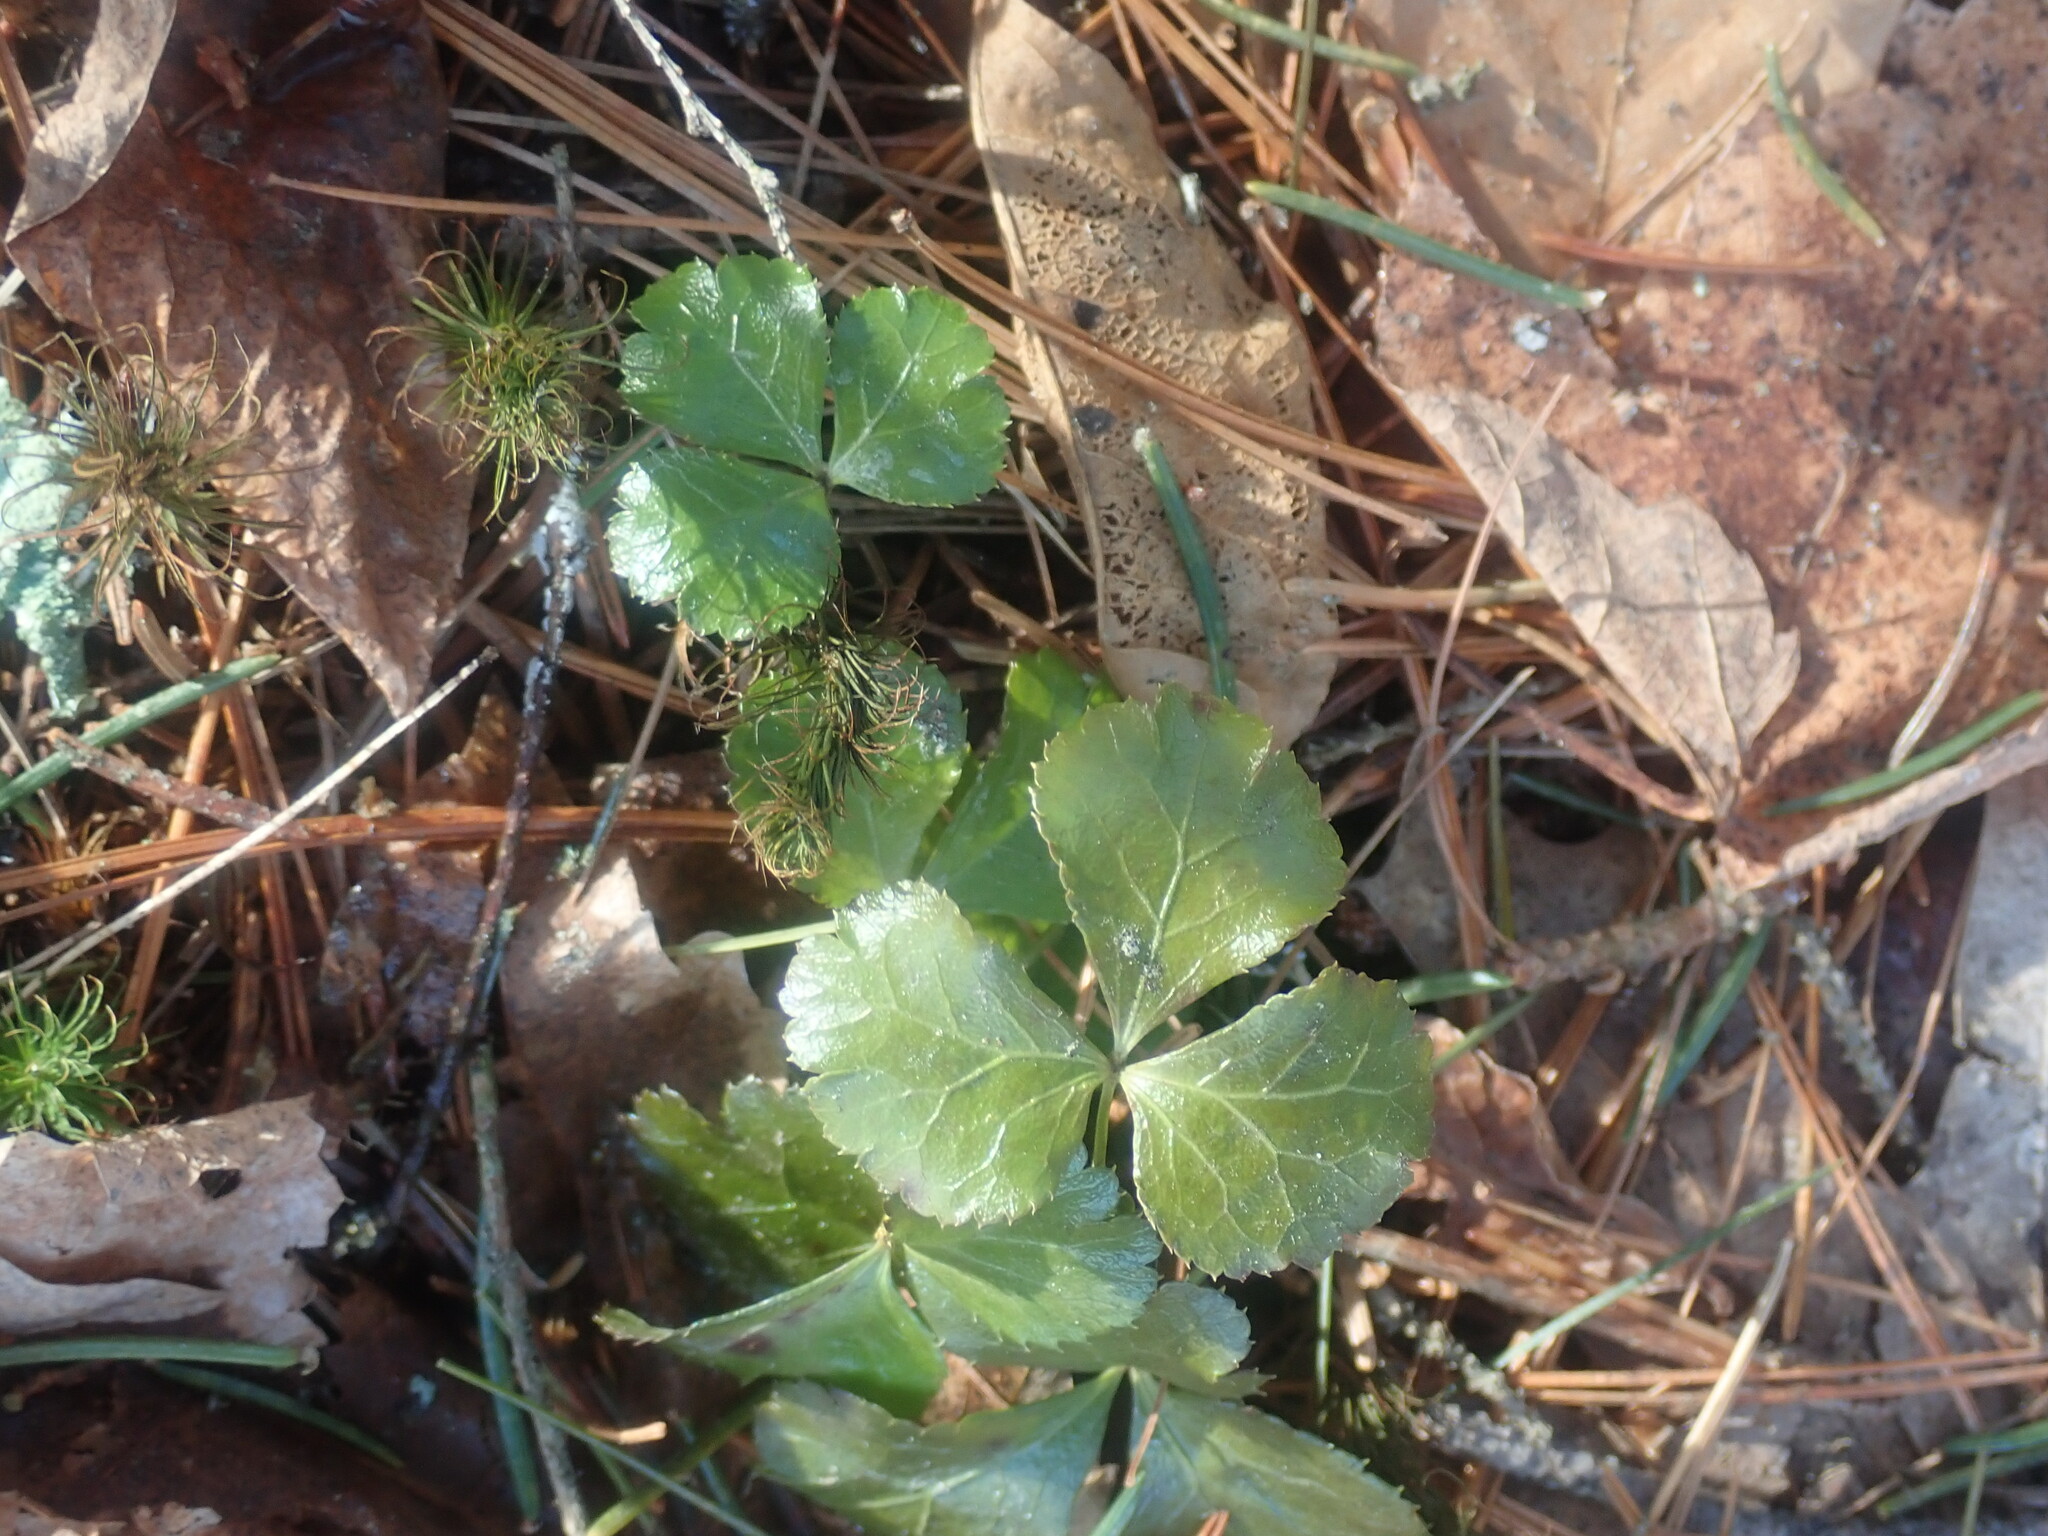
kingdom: Plantae
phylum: Tracheophyta
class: Magnoliopsida
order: Ranunculales
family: Ranunculaceae
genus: Coptis
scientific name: Coptis trifolia
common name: Canker-root
